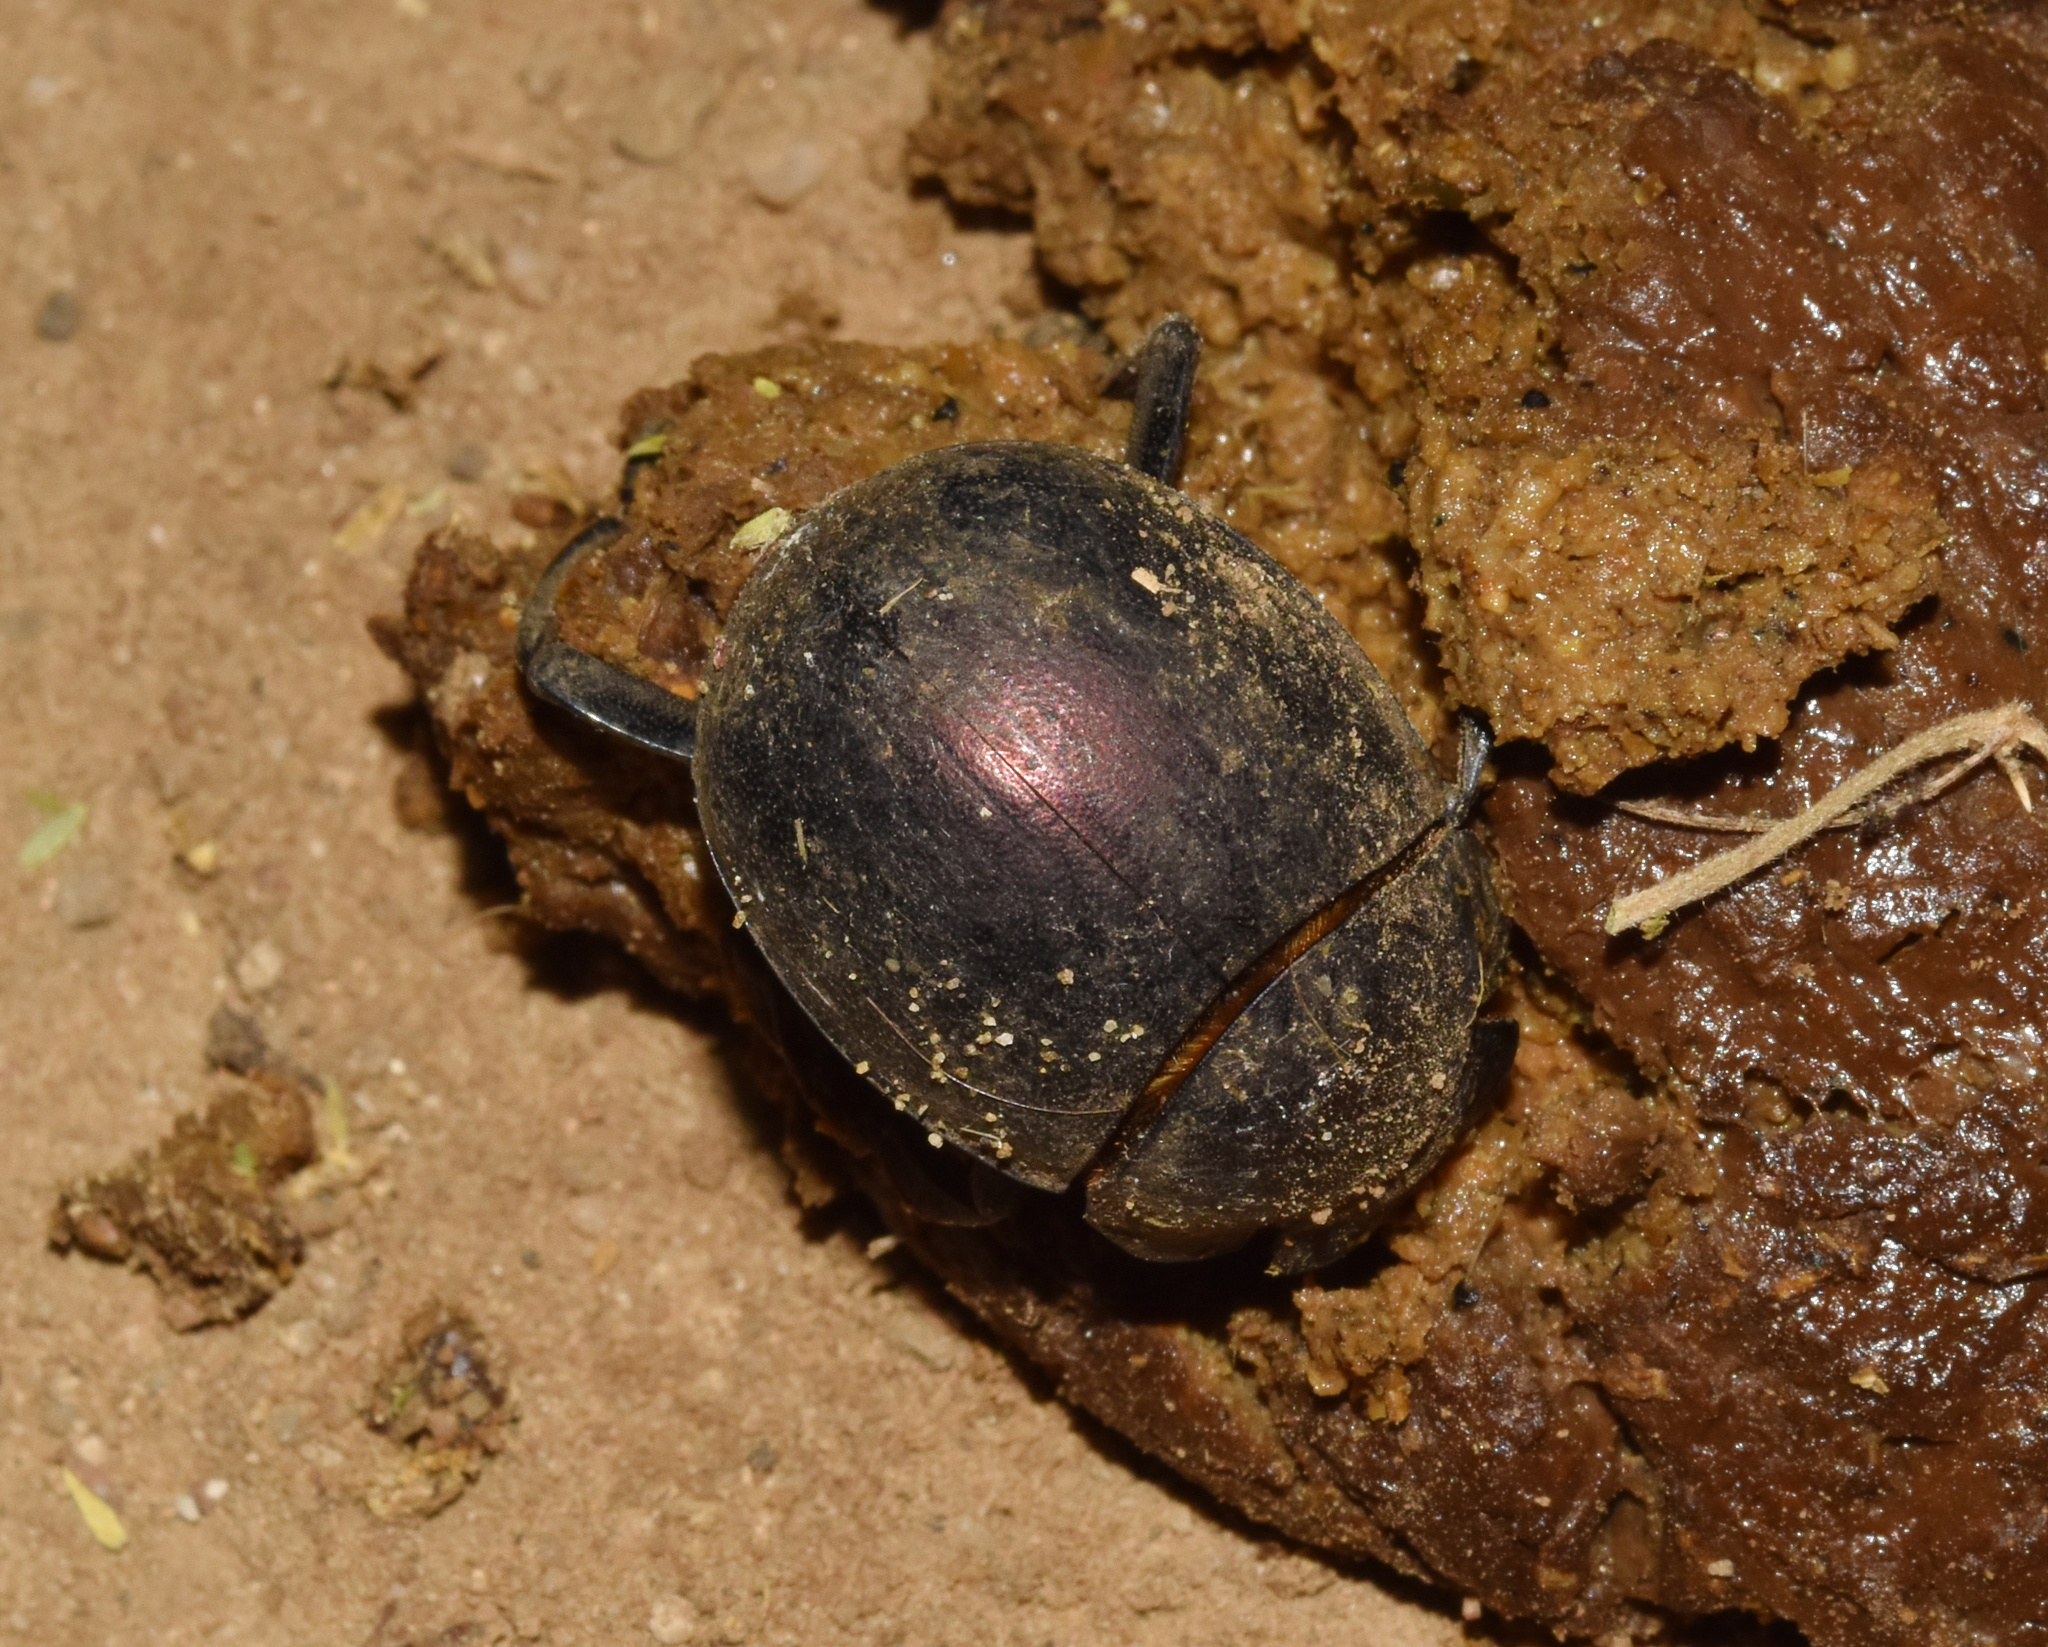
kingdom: Animalia
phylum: Arthropoda
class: Insecta
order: Coleoptera
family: Scarabaeidae
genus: Chalconotus
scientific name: Chalconotus convexus
